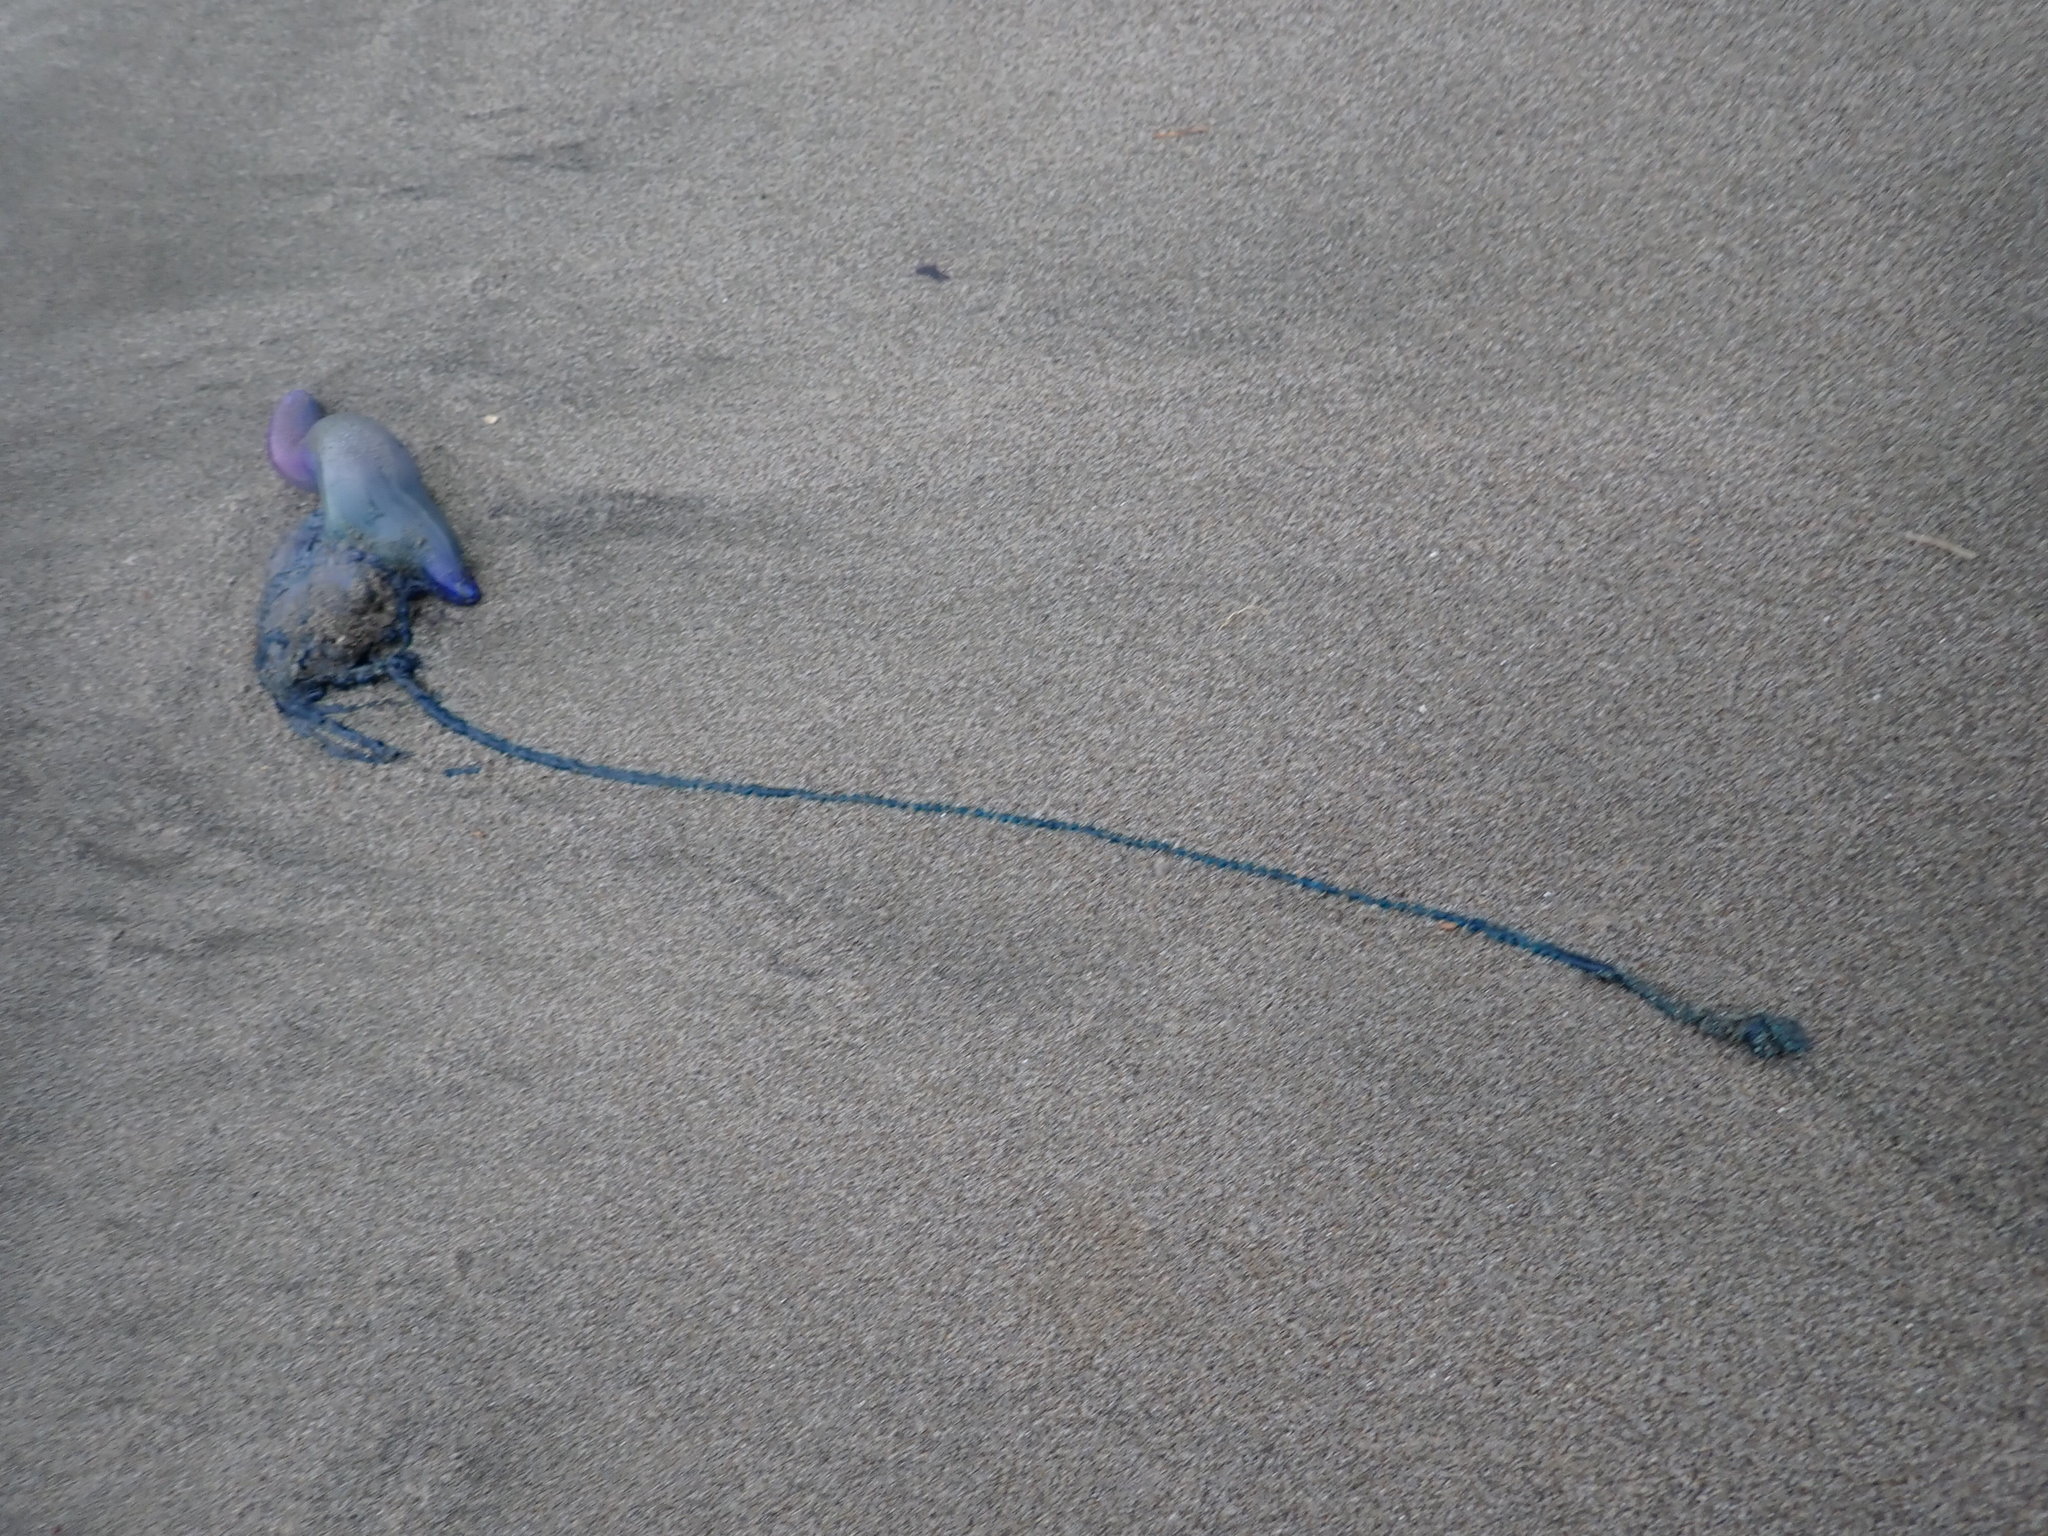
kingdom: Animalia
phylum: Cnidaria
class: Hydrozoa
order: Siphonophorae
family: Physaliidae
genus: Physalia
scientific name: Physalia physalis
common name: Portuguese man-of-war
